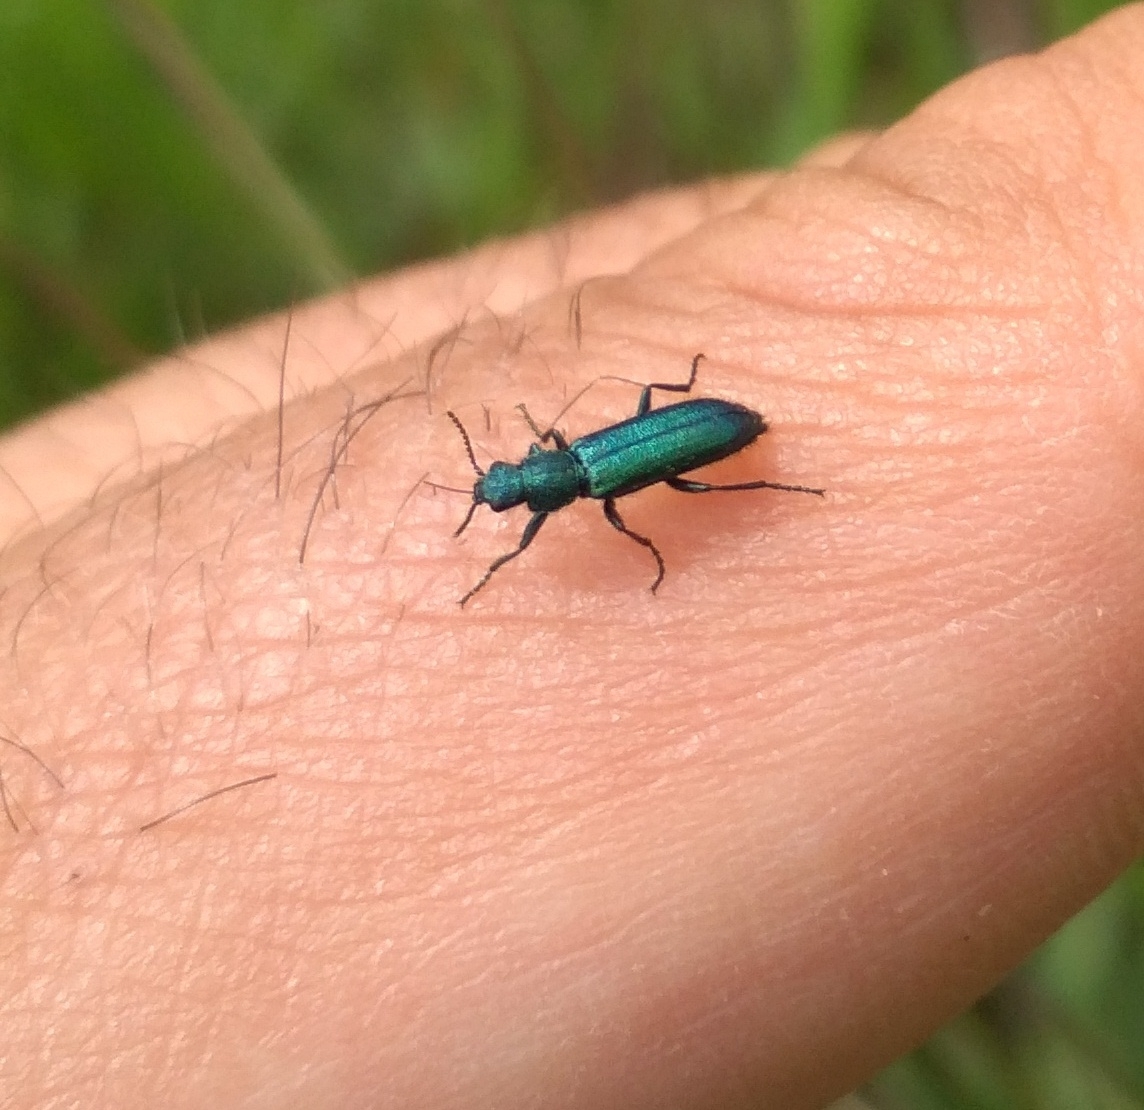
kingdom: Animalia
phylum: Arthropoda
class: Insecta
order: Coleoptera
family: Dasytidae
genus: Psilothrix
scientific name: Psilothrix viridicoerulea
